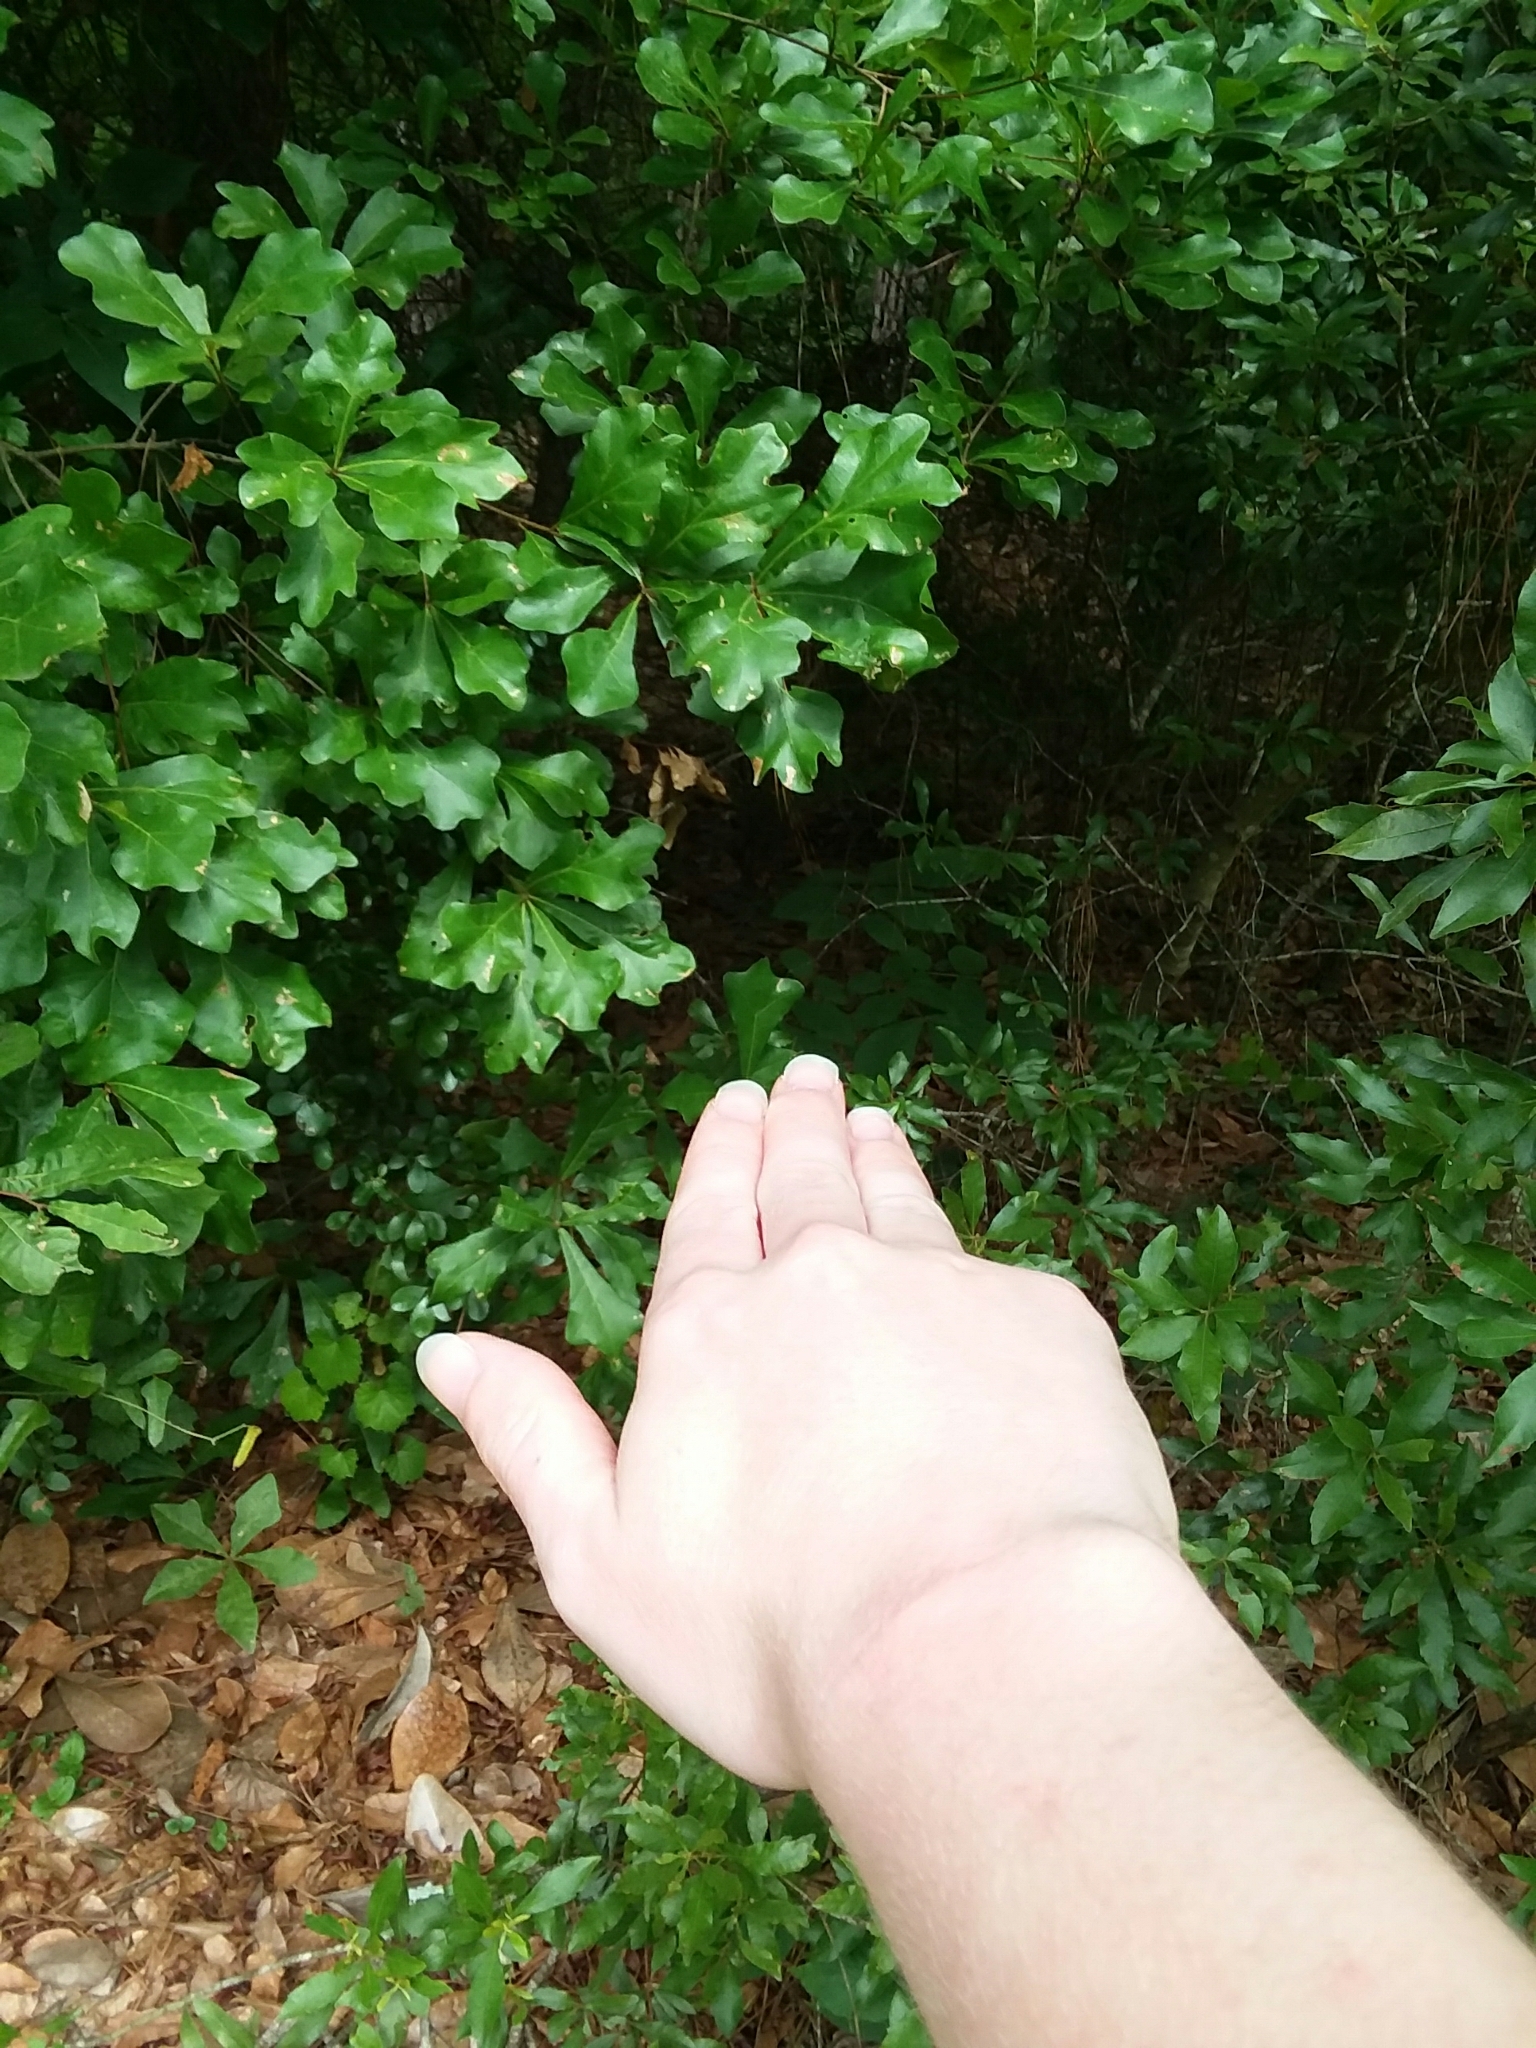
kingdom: Plantae
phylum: Tracheophyta
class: Magnoliopsida
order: Magnoliales
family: Annonaceae
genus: Asimina
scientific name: Asimina parviflora
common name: Dwarf pawpaw
